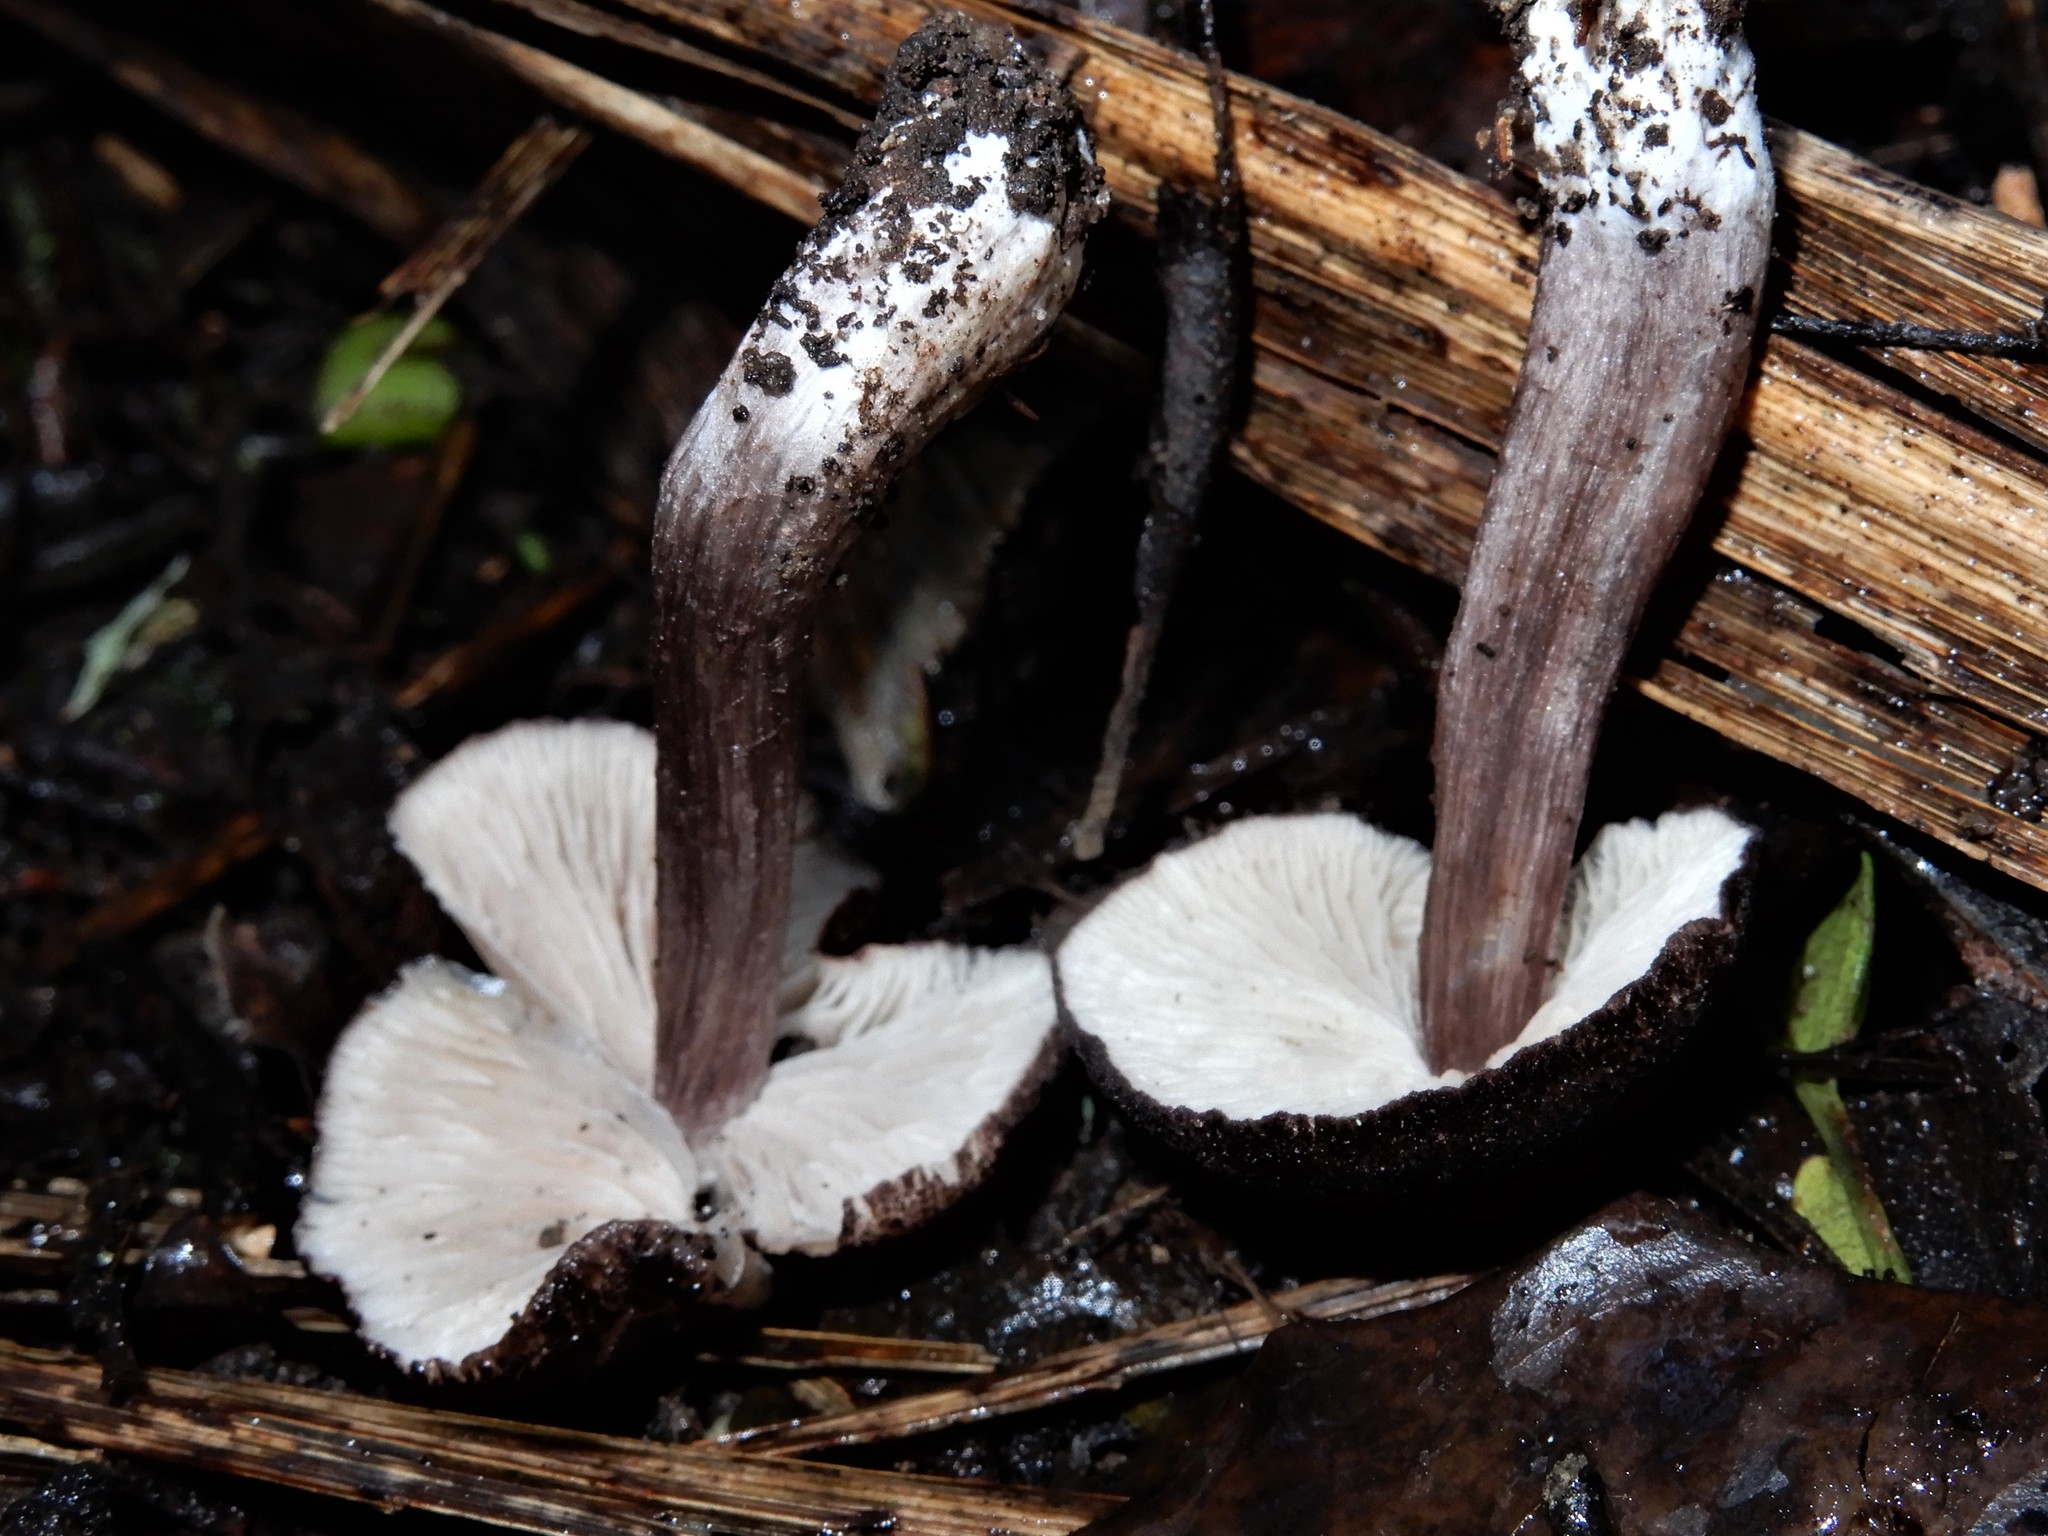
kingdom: Fungi
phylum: Basidiomycota
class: Agaricomycetes
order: Agaricales
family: Entolomataceae
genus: Entoloma
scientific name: Entoloma porphyrescens
